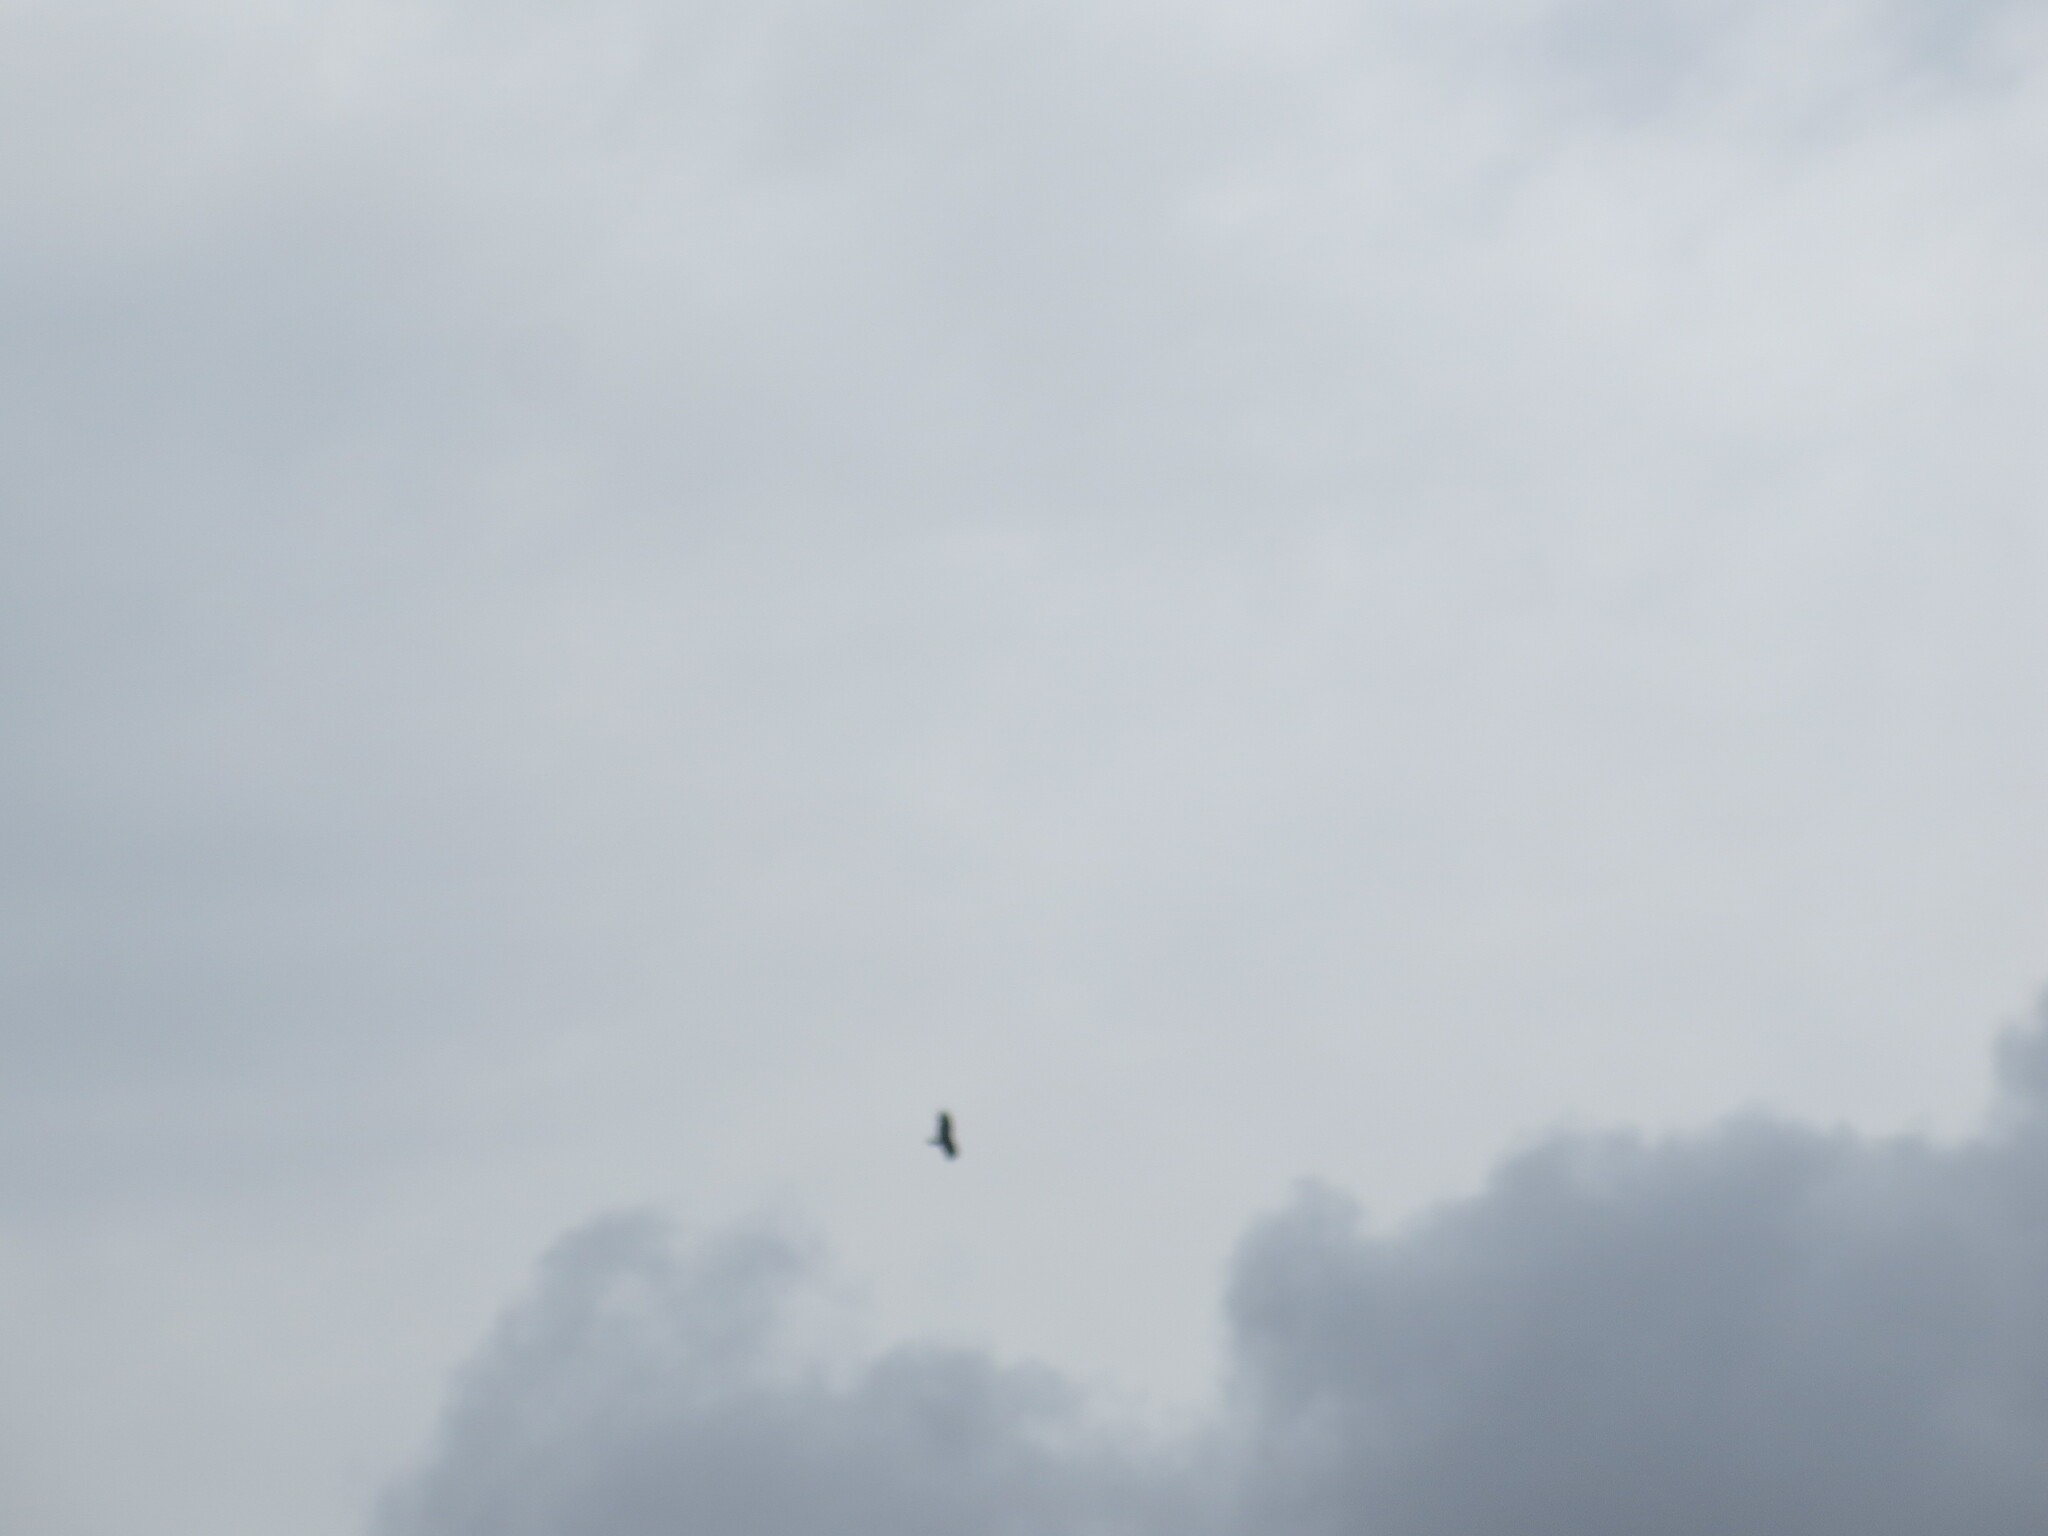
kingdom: Animalia
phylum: Chordata
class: Aves
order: Accipitriformes
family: Cathartidae
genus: Cathartes
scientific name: Cathartes aura
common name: Turkey vulture
